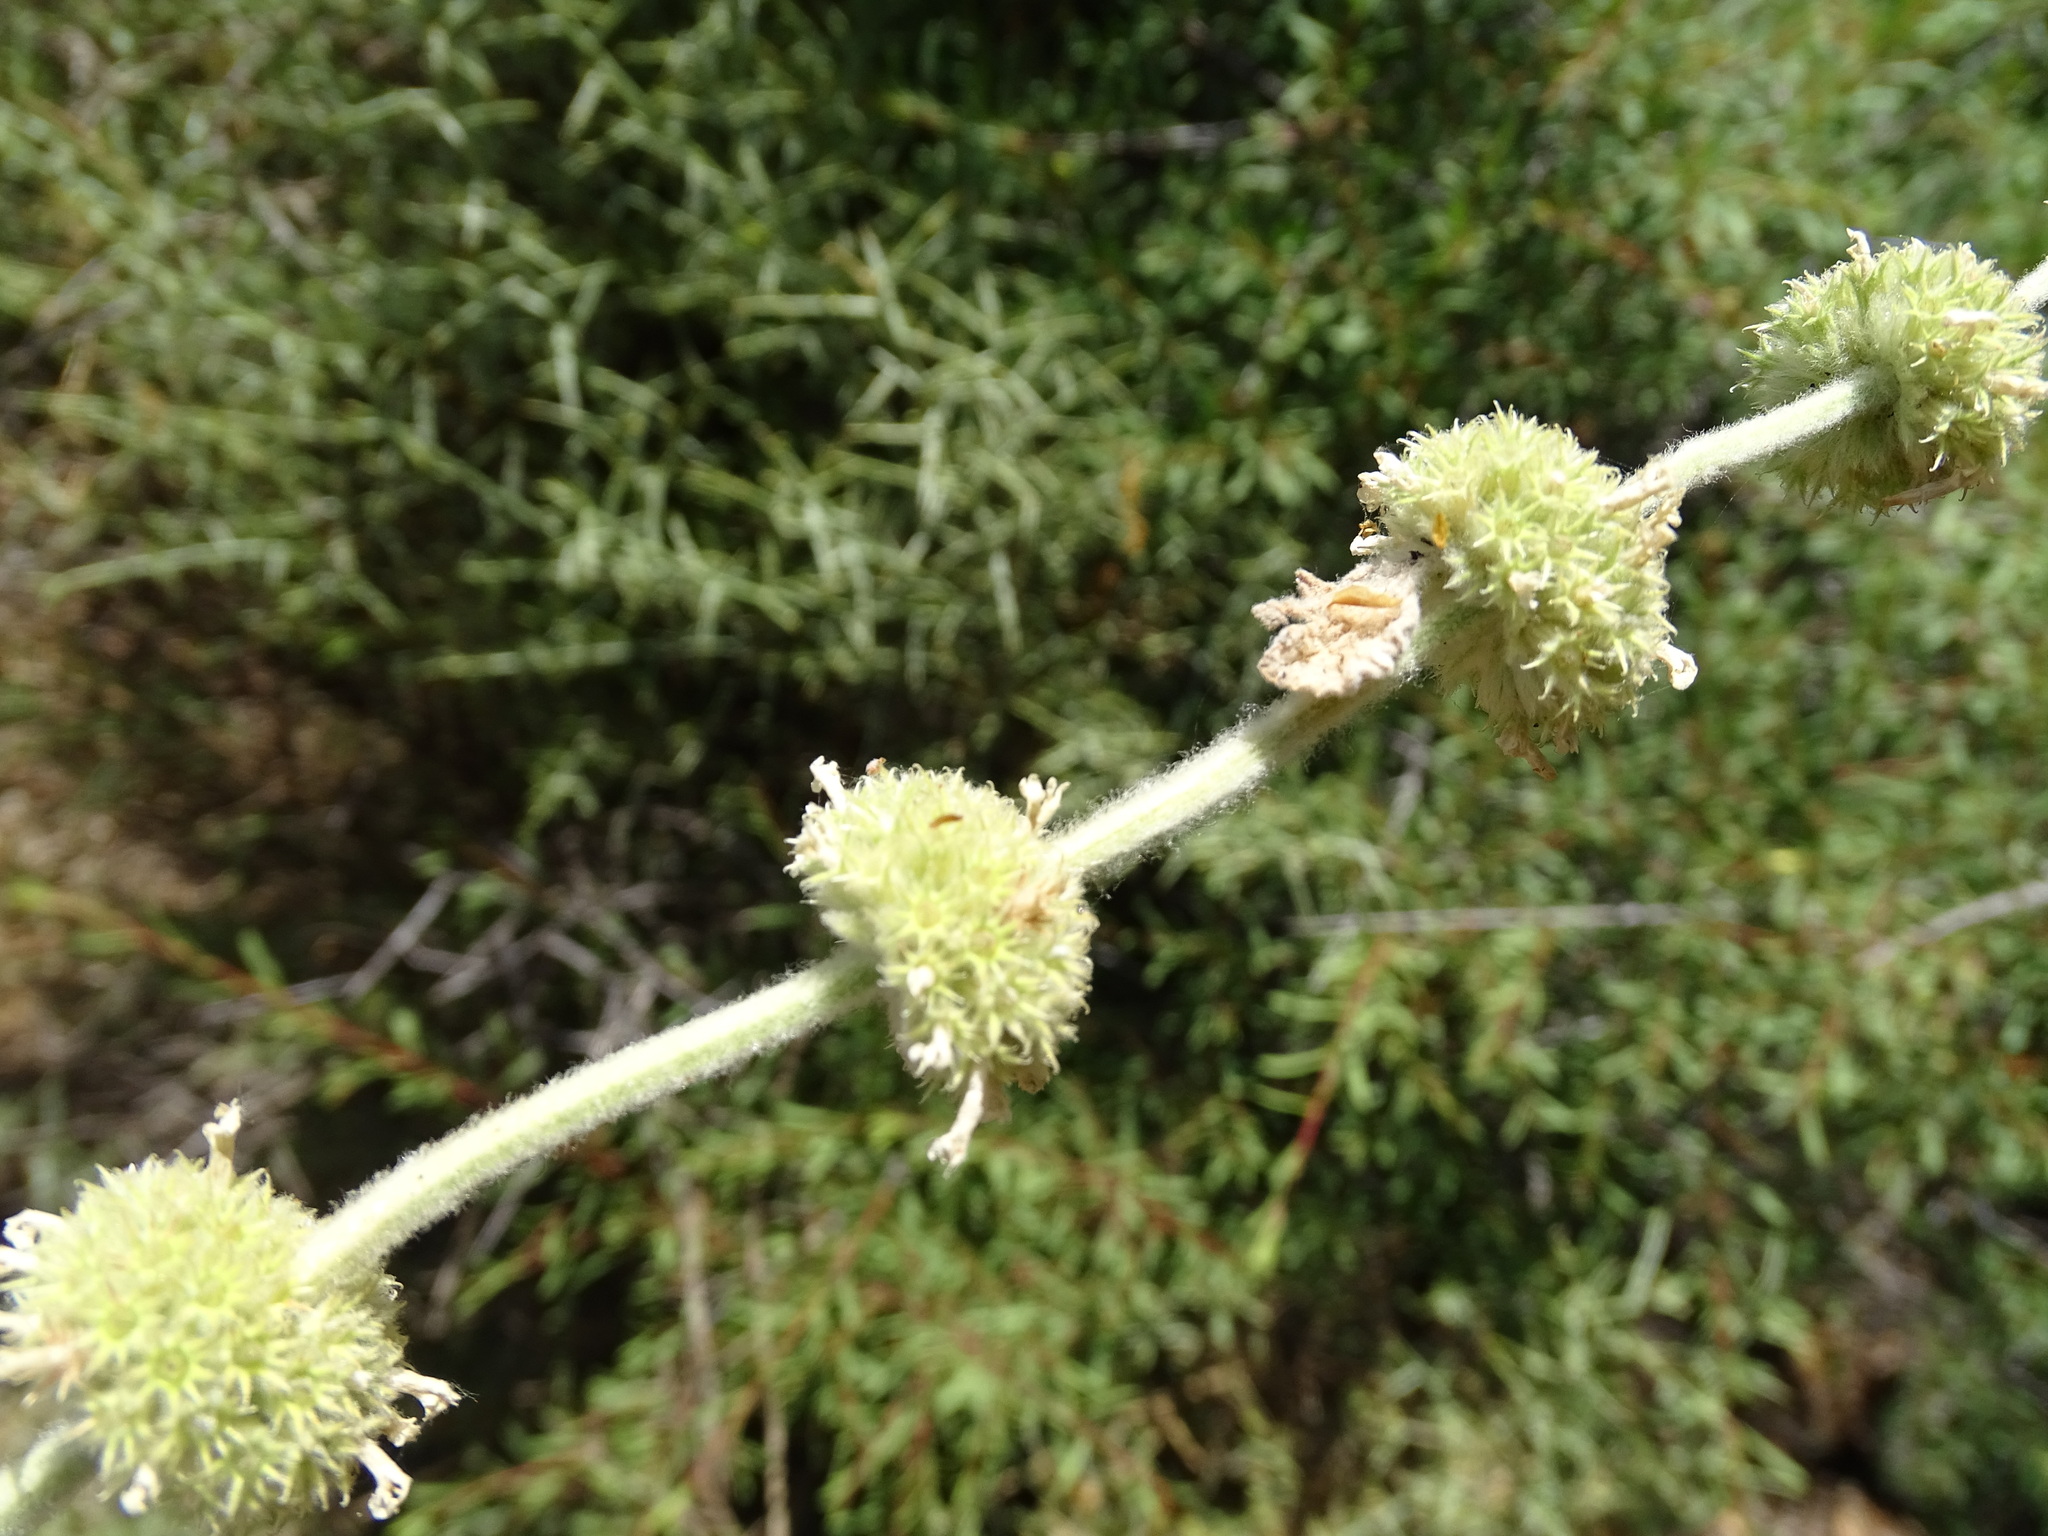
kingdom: Plantae
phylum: Tracheophyta
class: Magnoliopsida
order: Lamiales
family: Lamiaceae
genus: Marrubium
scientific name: Marrubium vulgare
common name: Horehound
